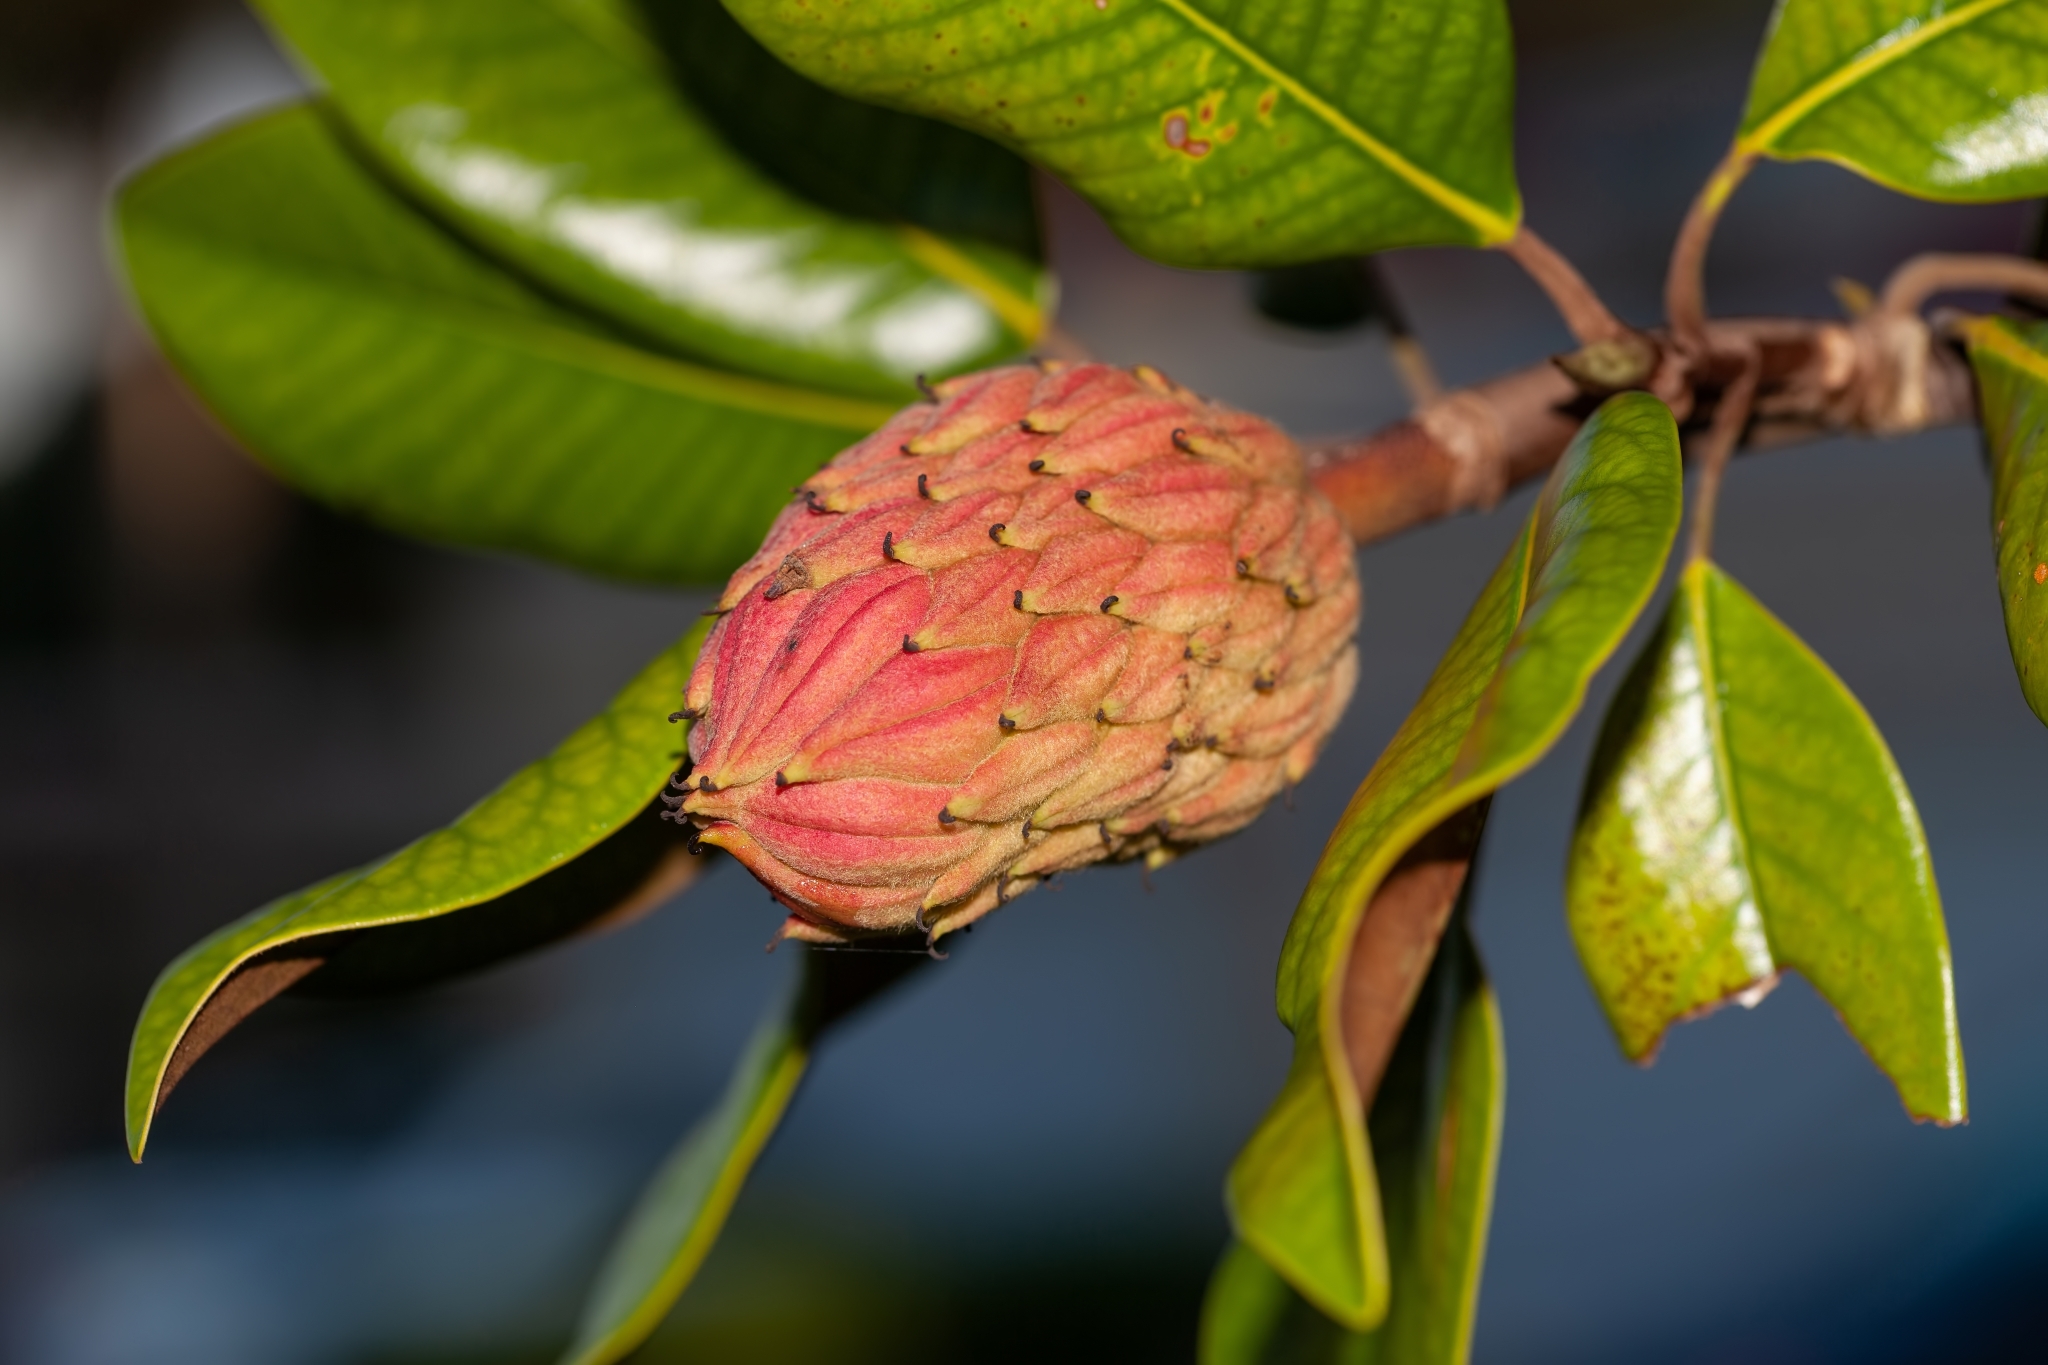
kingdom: Plantae
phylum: Tracheophyta
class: Magnoliopsida
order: Magnoliales
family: Magnoliaceae
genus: Magnolia
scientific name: Magnolia grandiflora
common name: Southern magnolia
